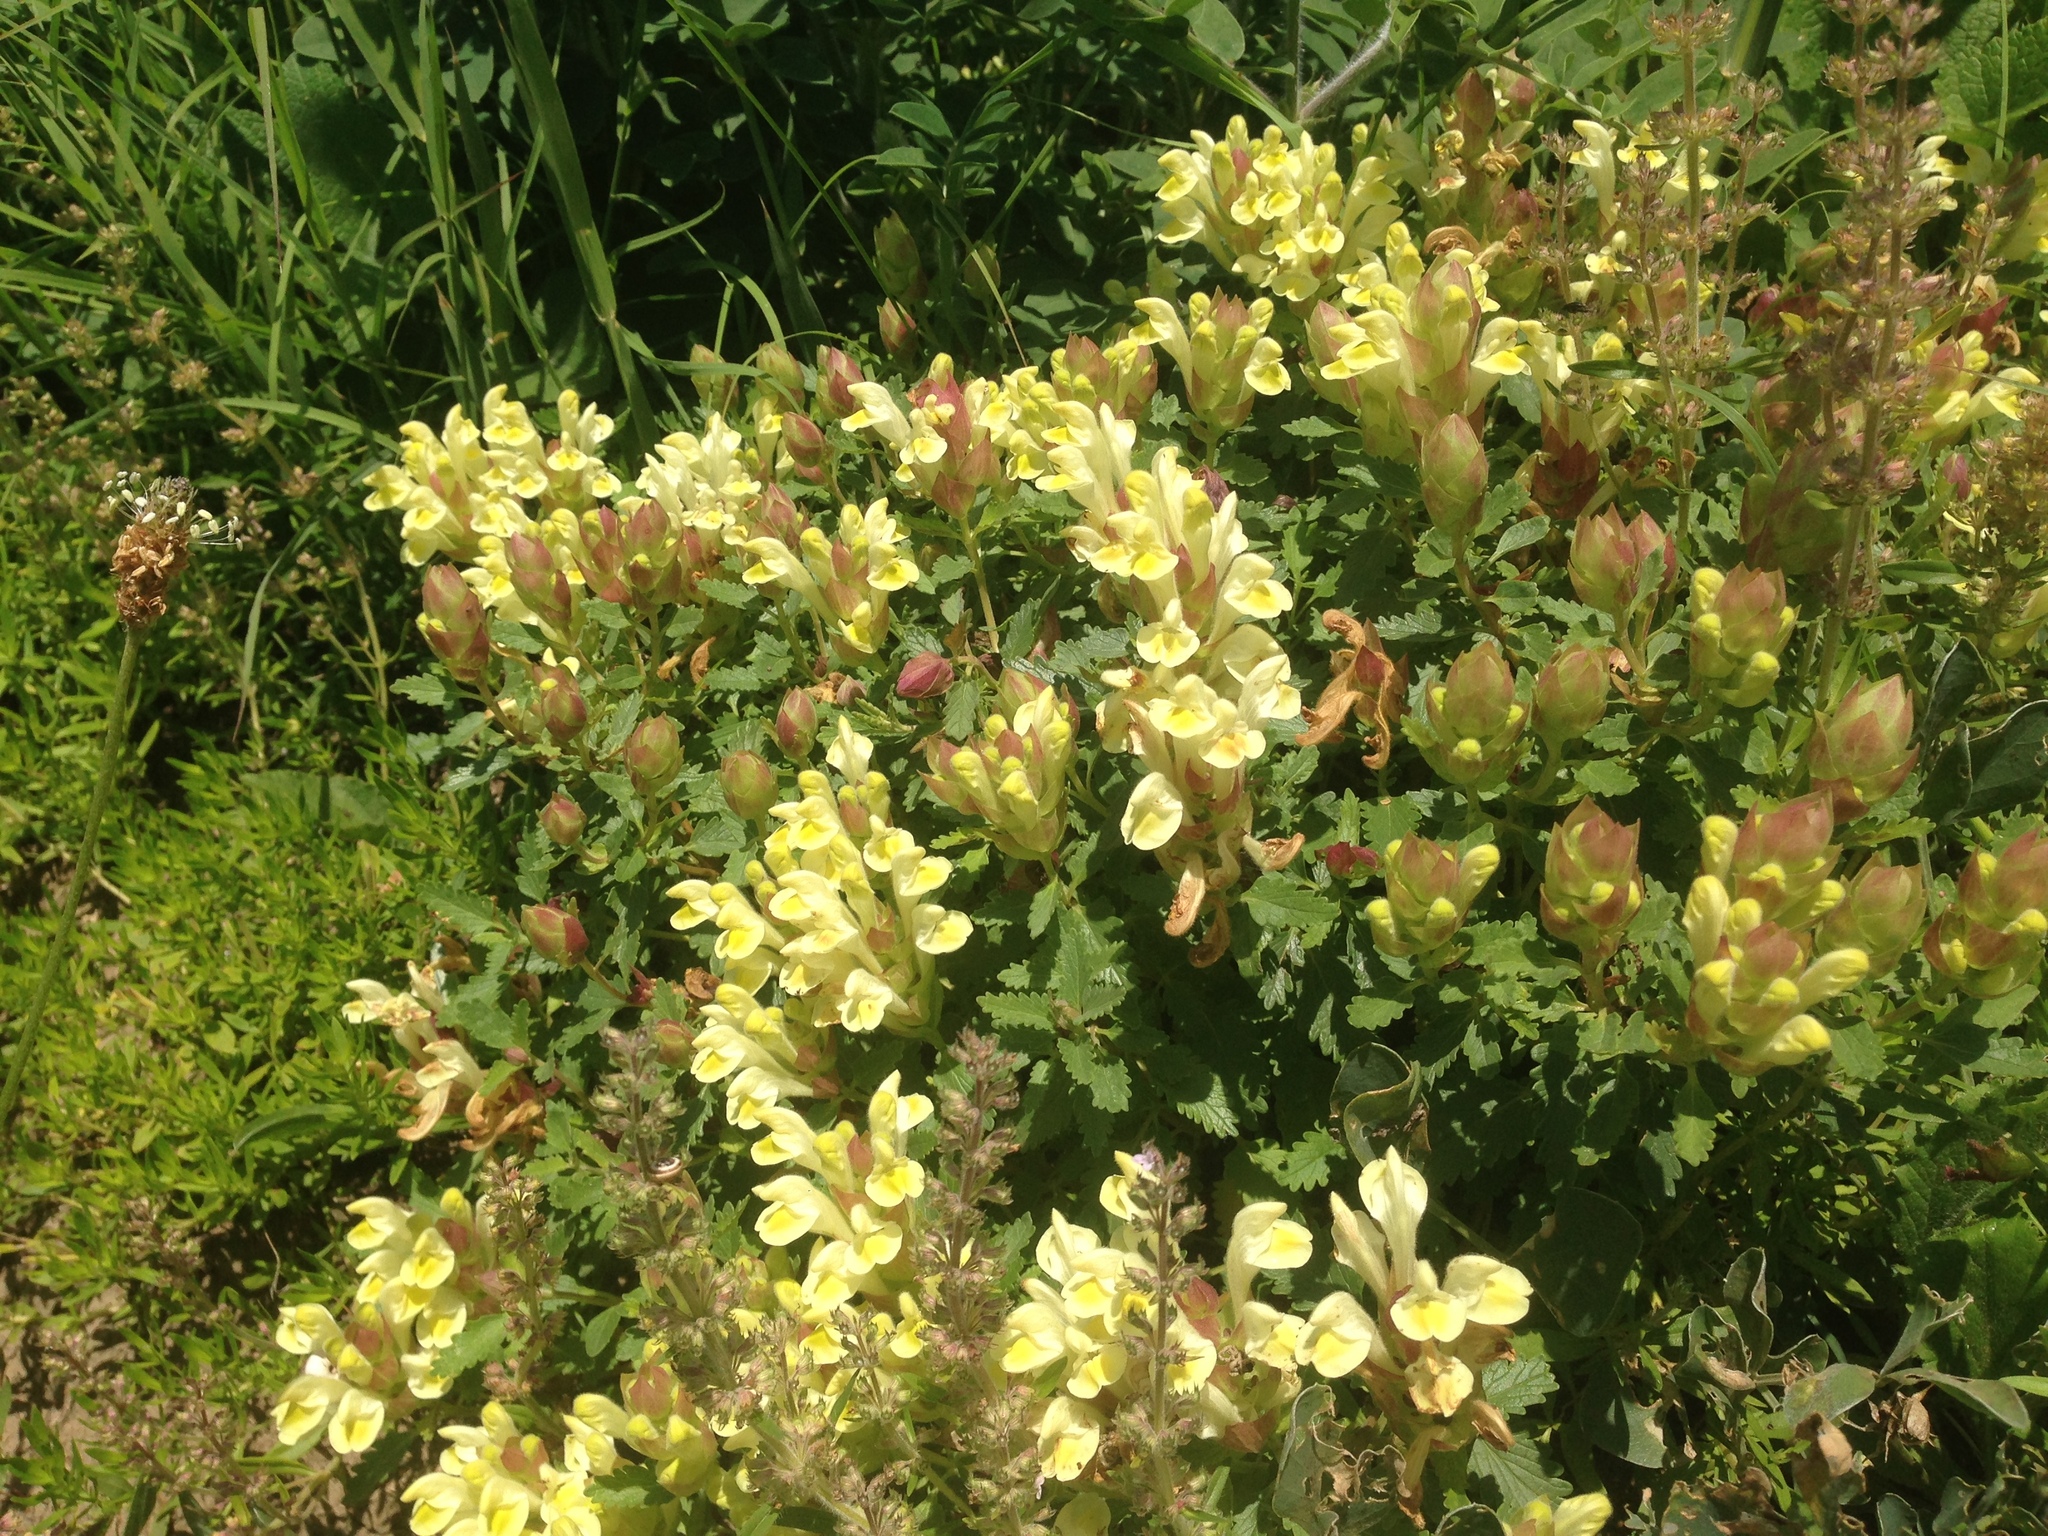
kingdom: Plantae
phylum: Tracheophyta
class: Magnoliopsida
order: Lamiales
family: Lamiaceae
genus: Scutellaria
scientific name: Scutellaria orientalis
